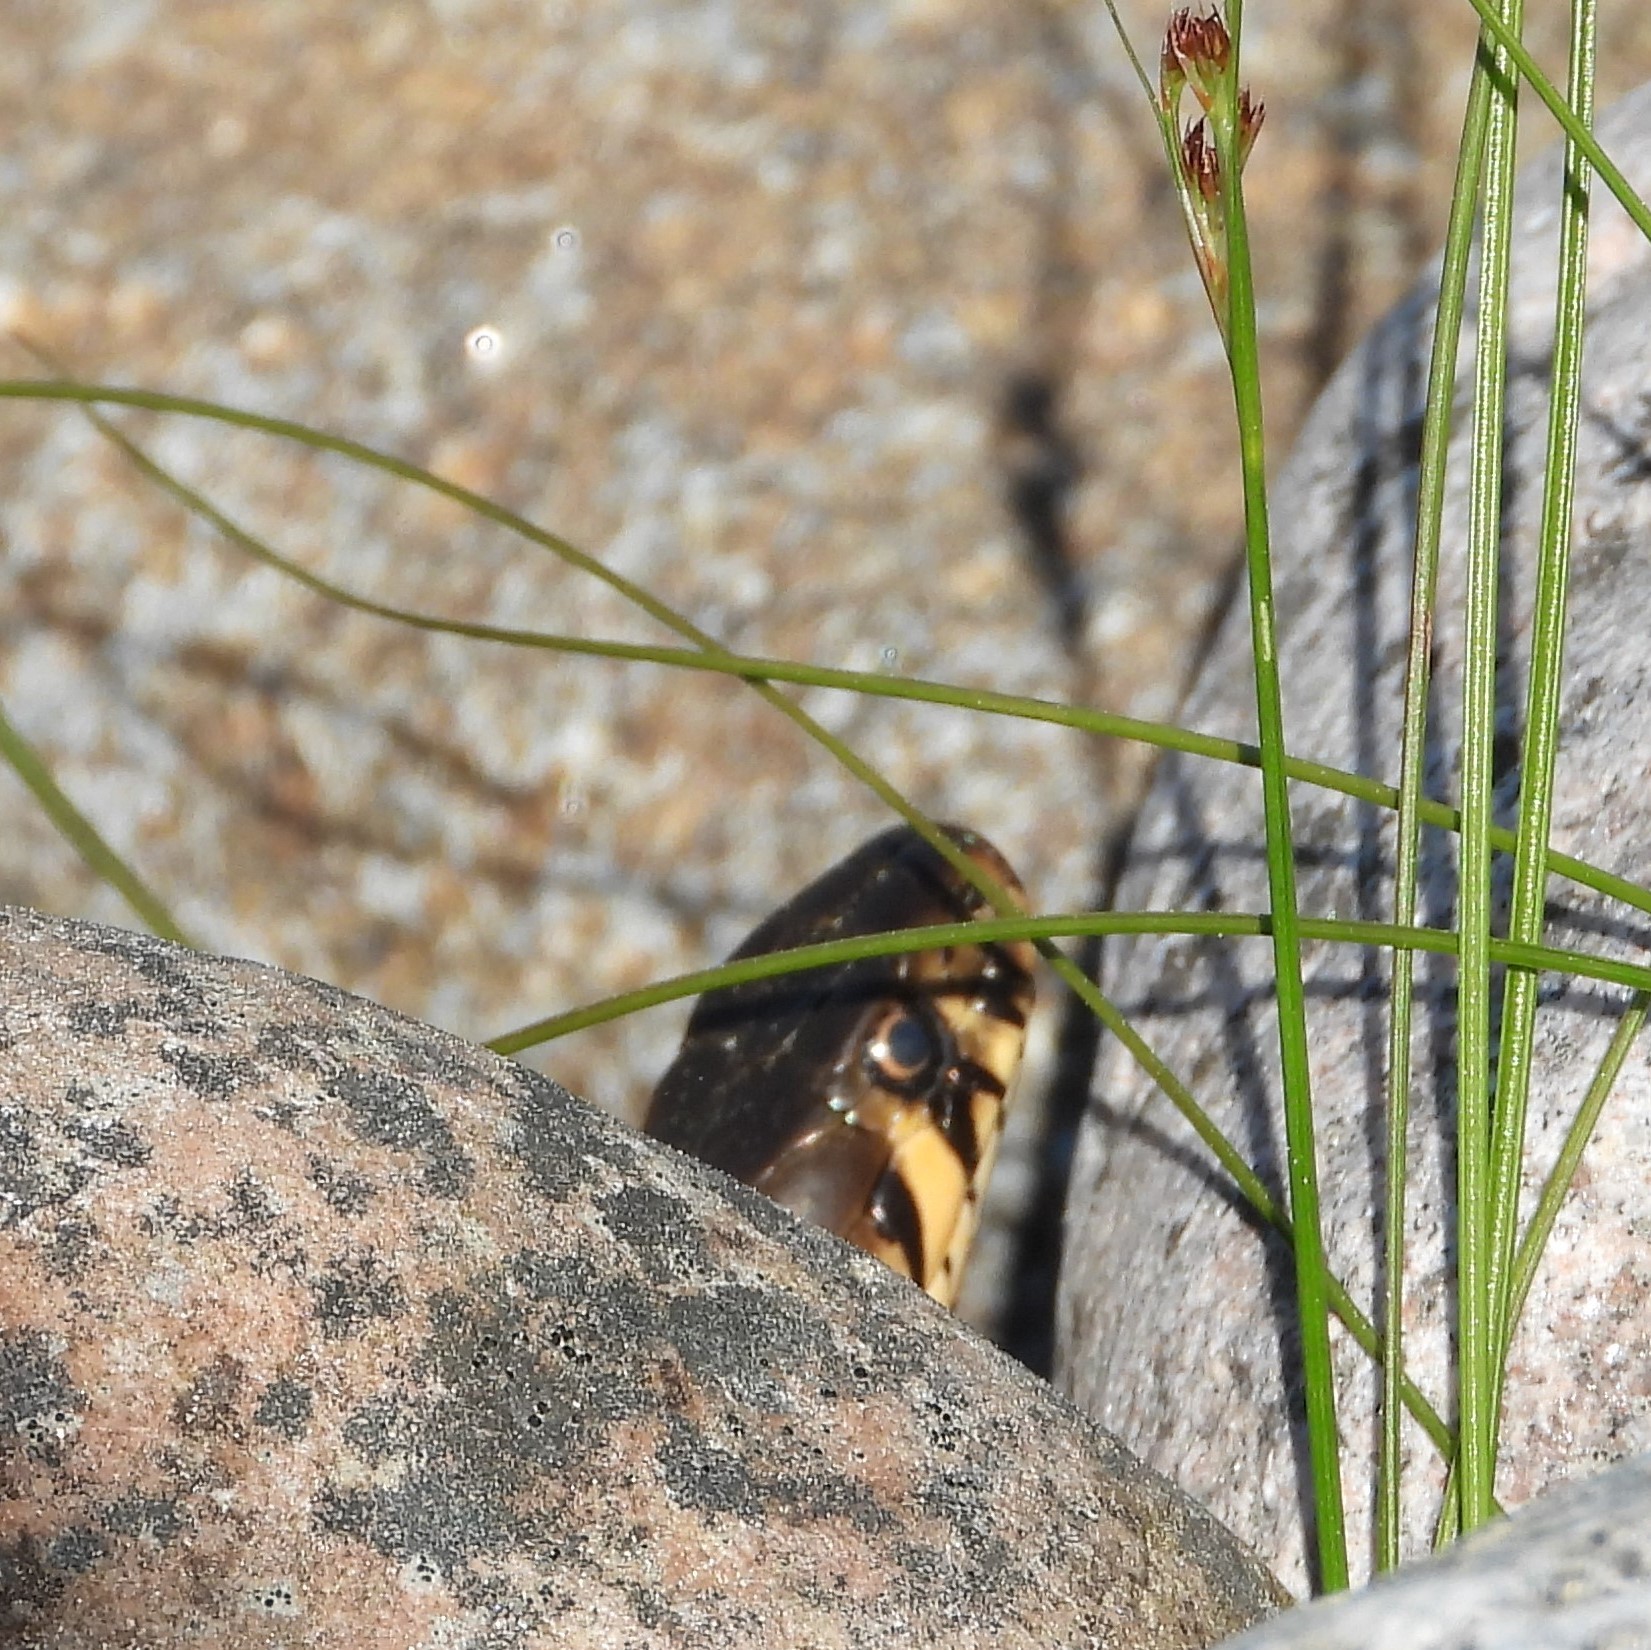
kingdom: Animalia
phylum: Chordata
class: Squamata
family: Colubridae
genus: Natrix
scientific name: Natrix natrix
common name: Grass snake
